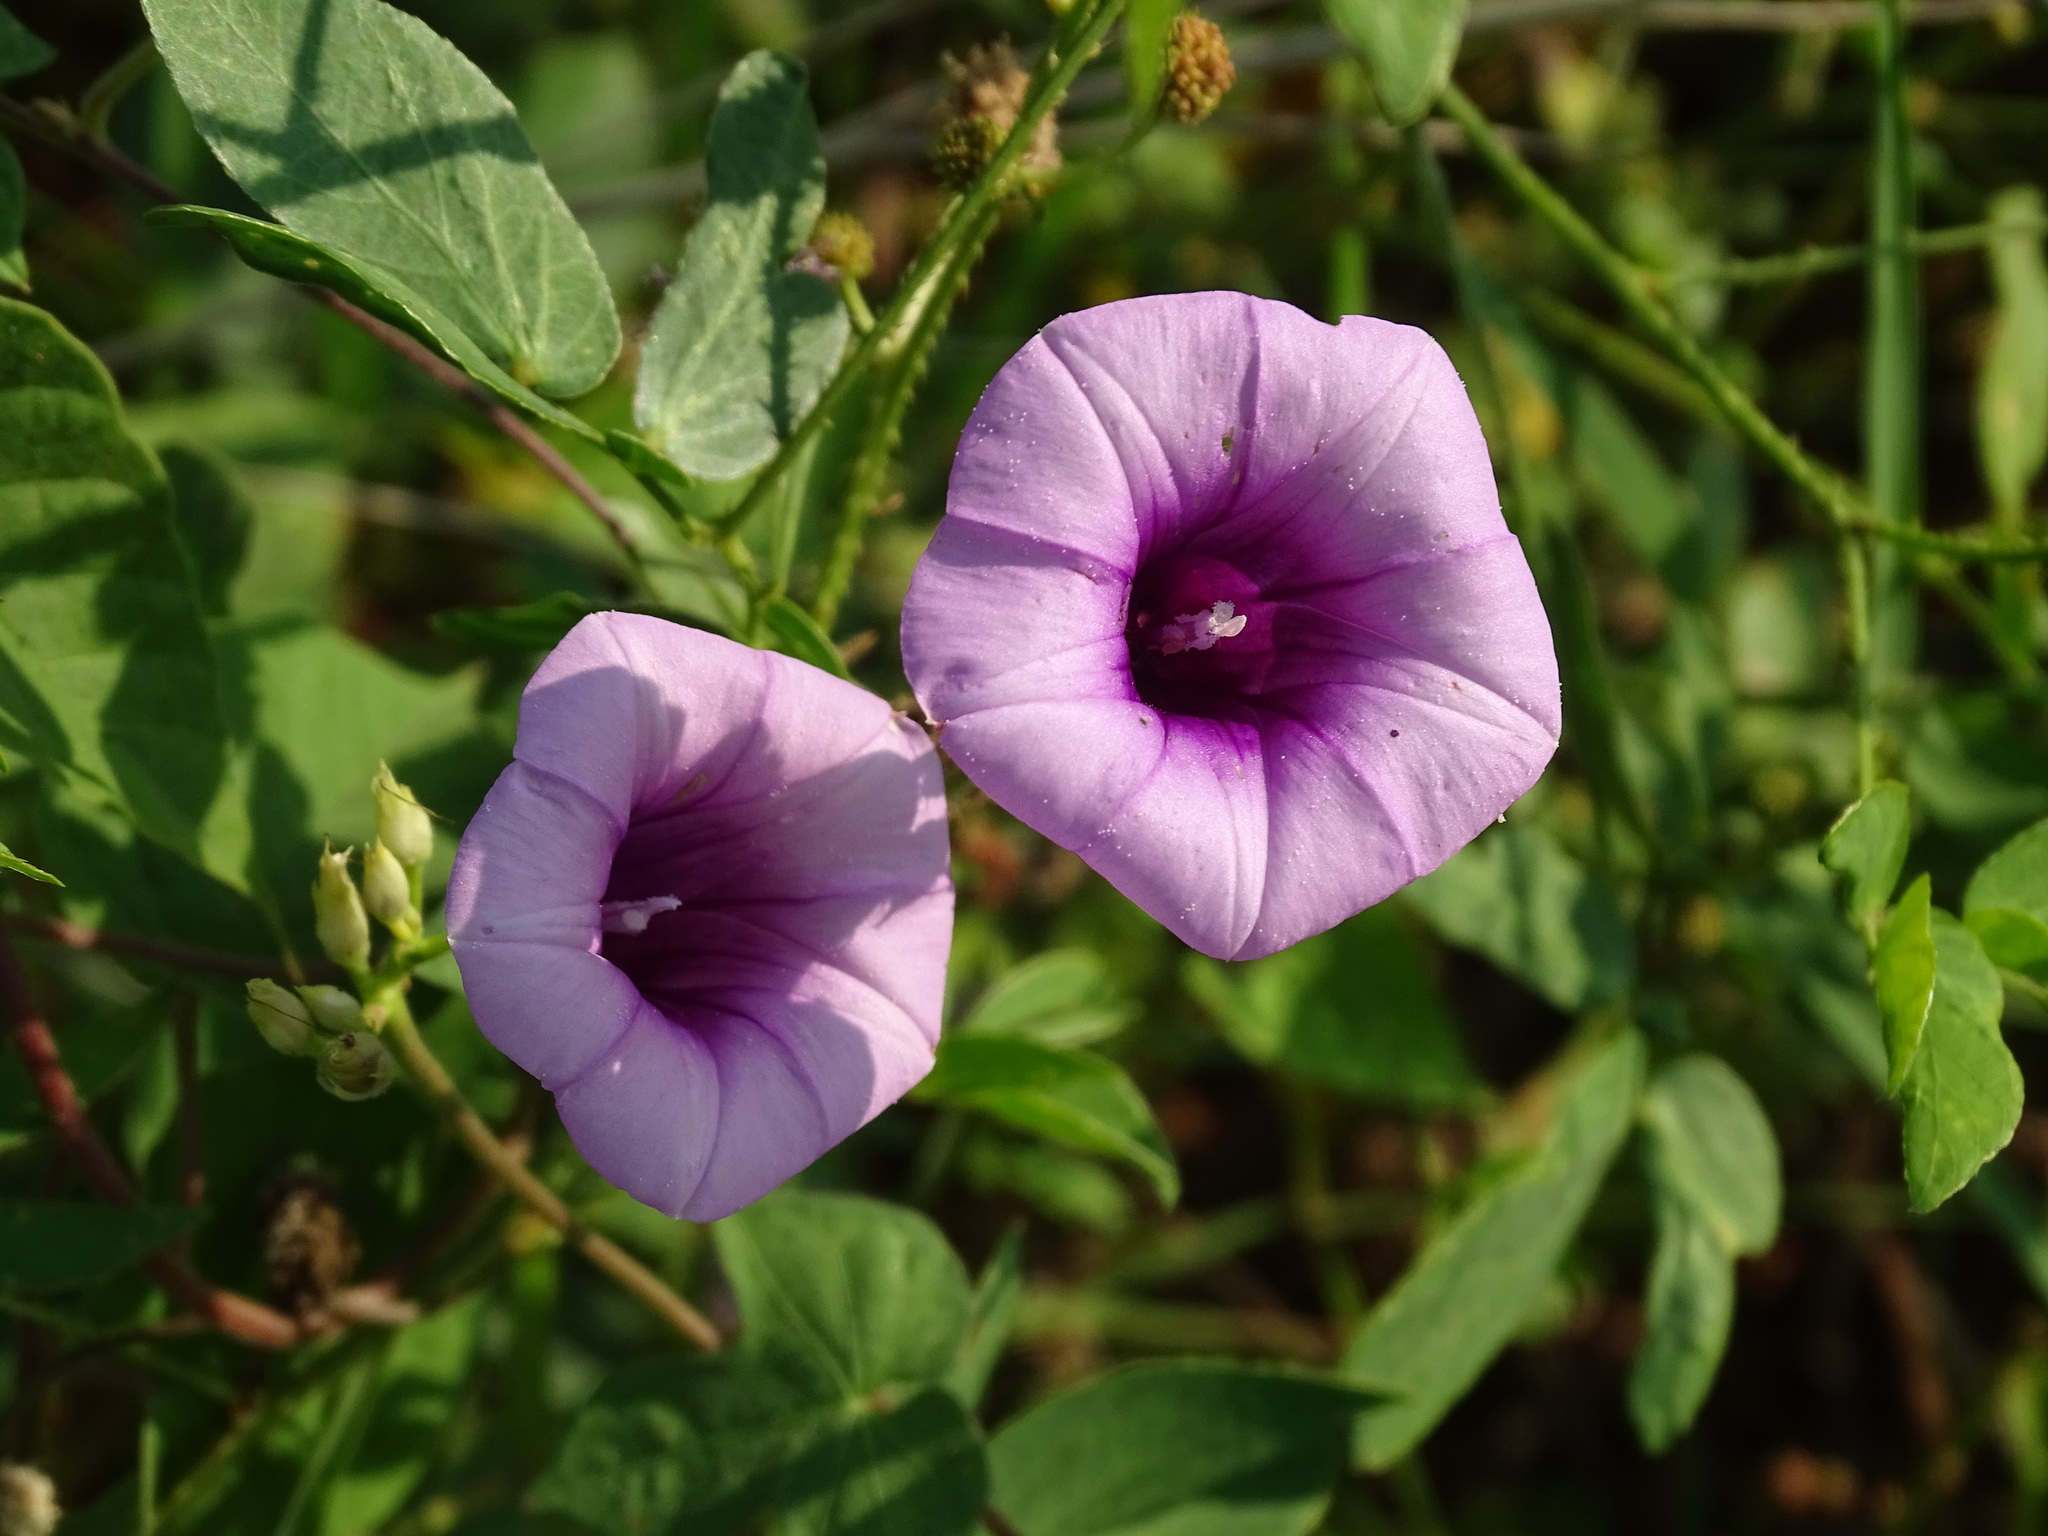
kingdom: Plantae
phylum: Tracheophyta
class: Magnoliopsida
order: Solanales
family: Convolvulaceae
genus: Ipomoea
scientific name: Ipomoea trifida
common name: Cotton morningglory
